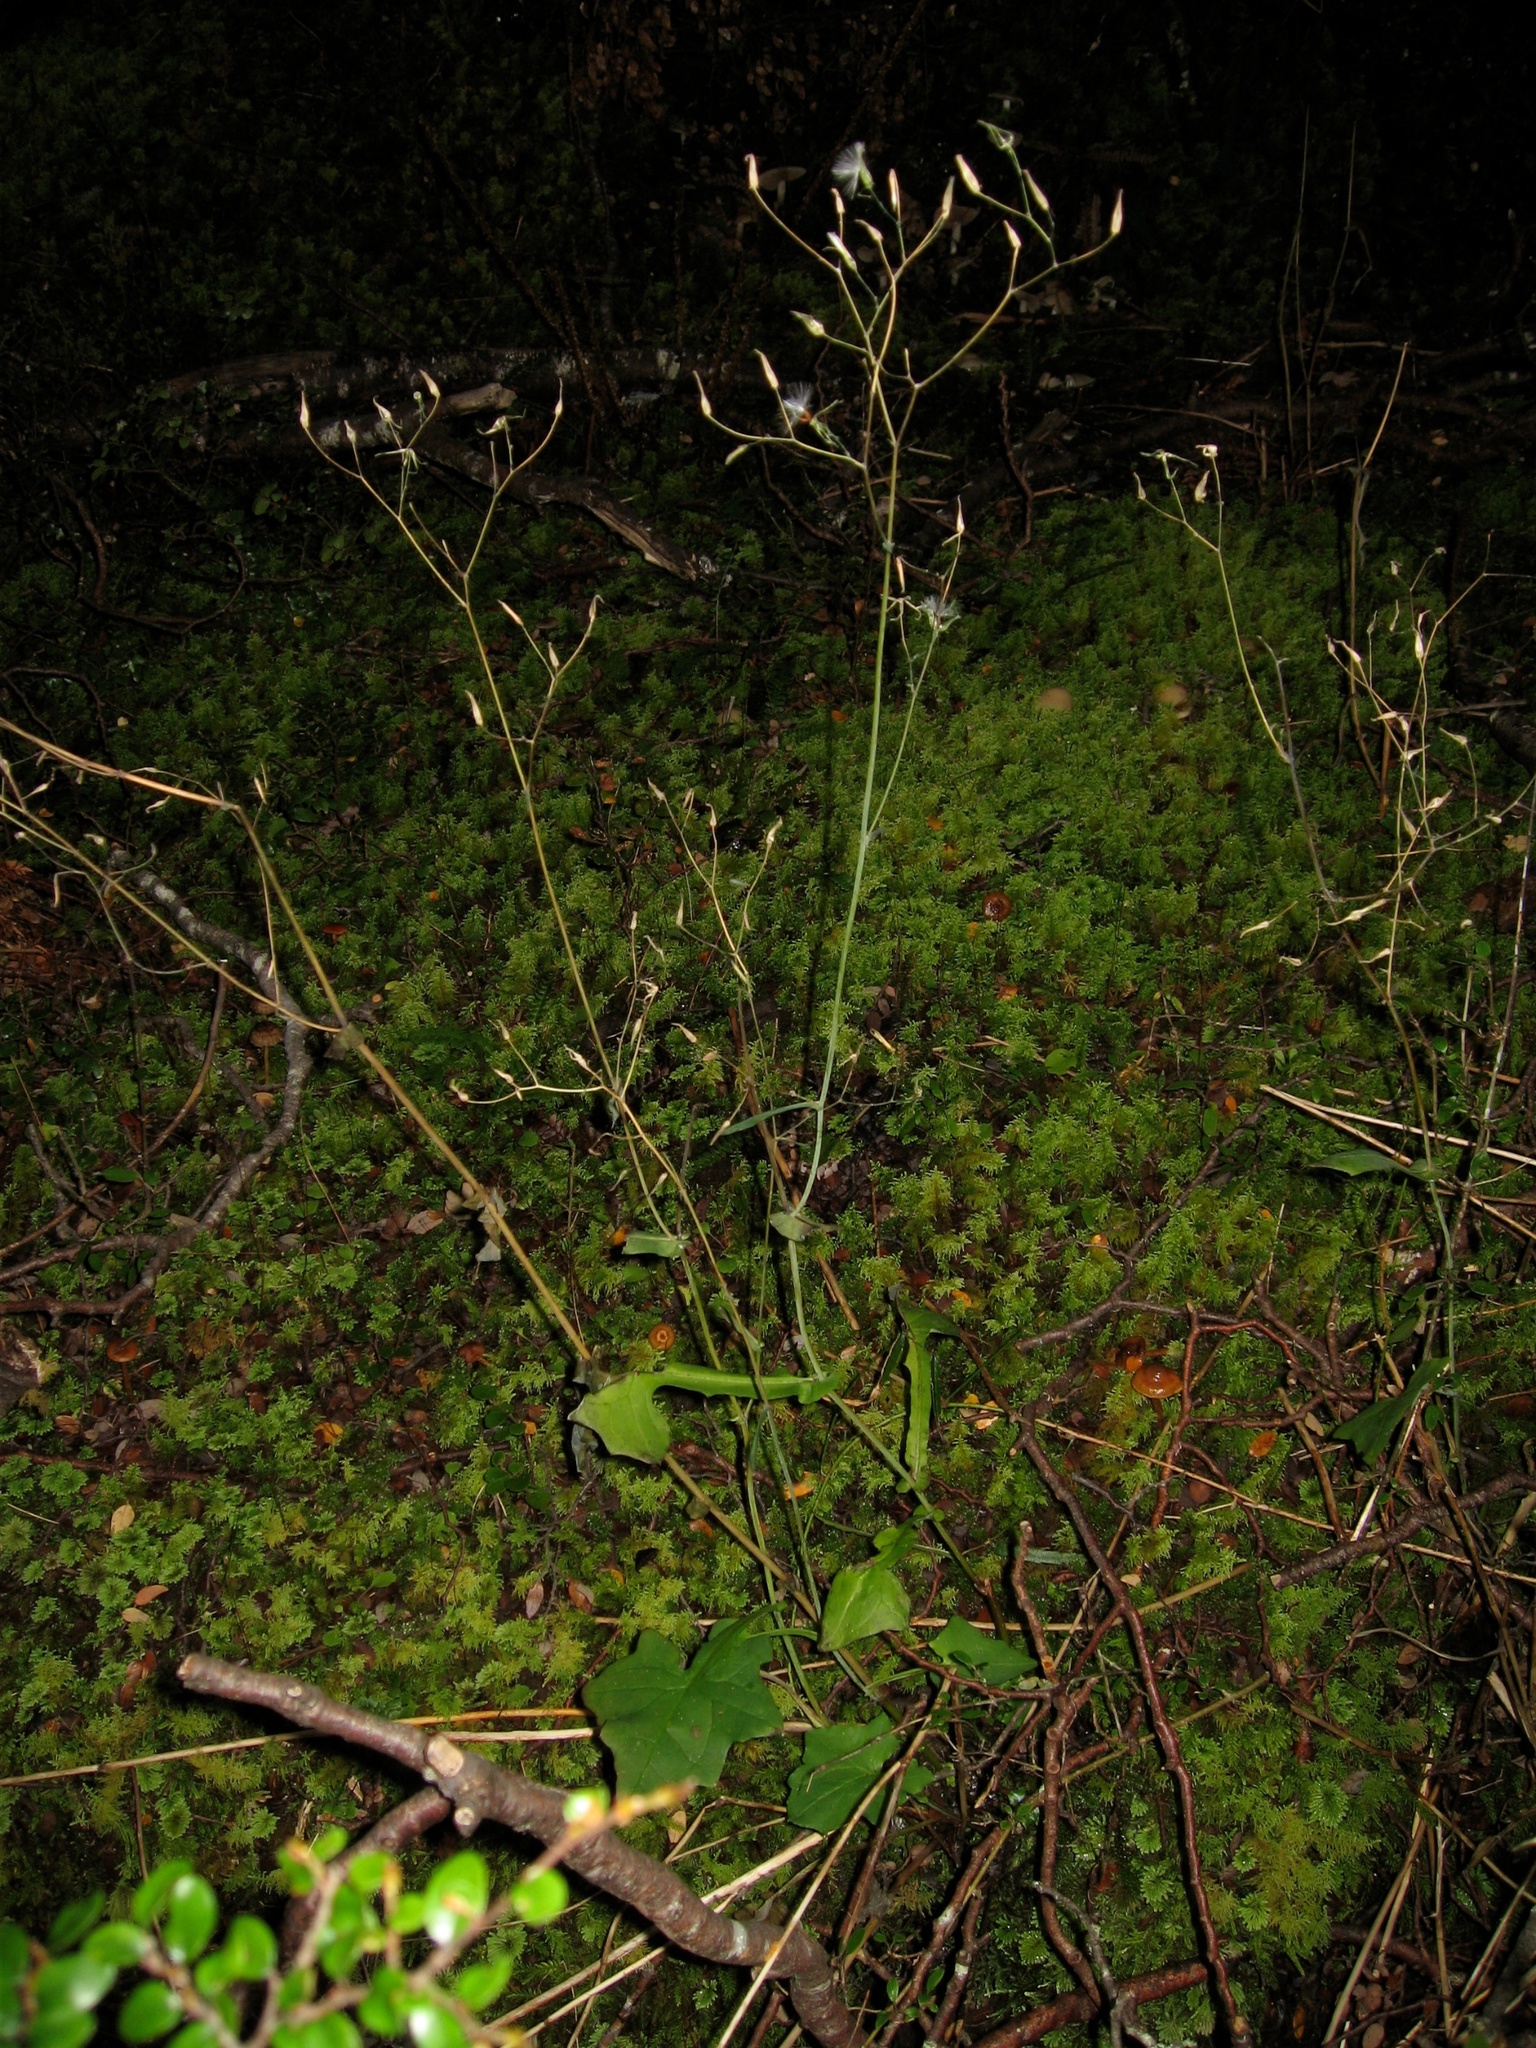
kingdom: Plantae
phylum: Tracheophyta
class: Magnoliopsida
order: Asterales
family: Asteraceae
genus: Mycelis
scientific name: Mycelis muralis
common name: Wall lettuce
